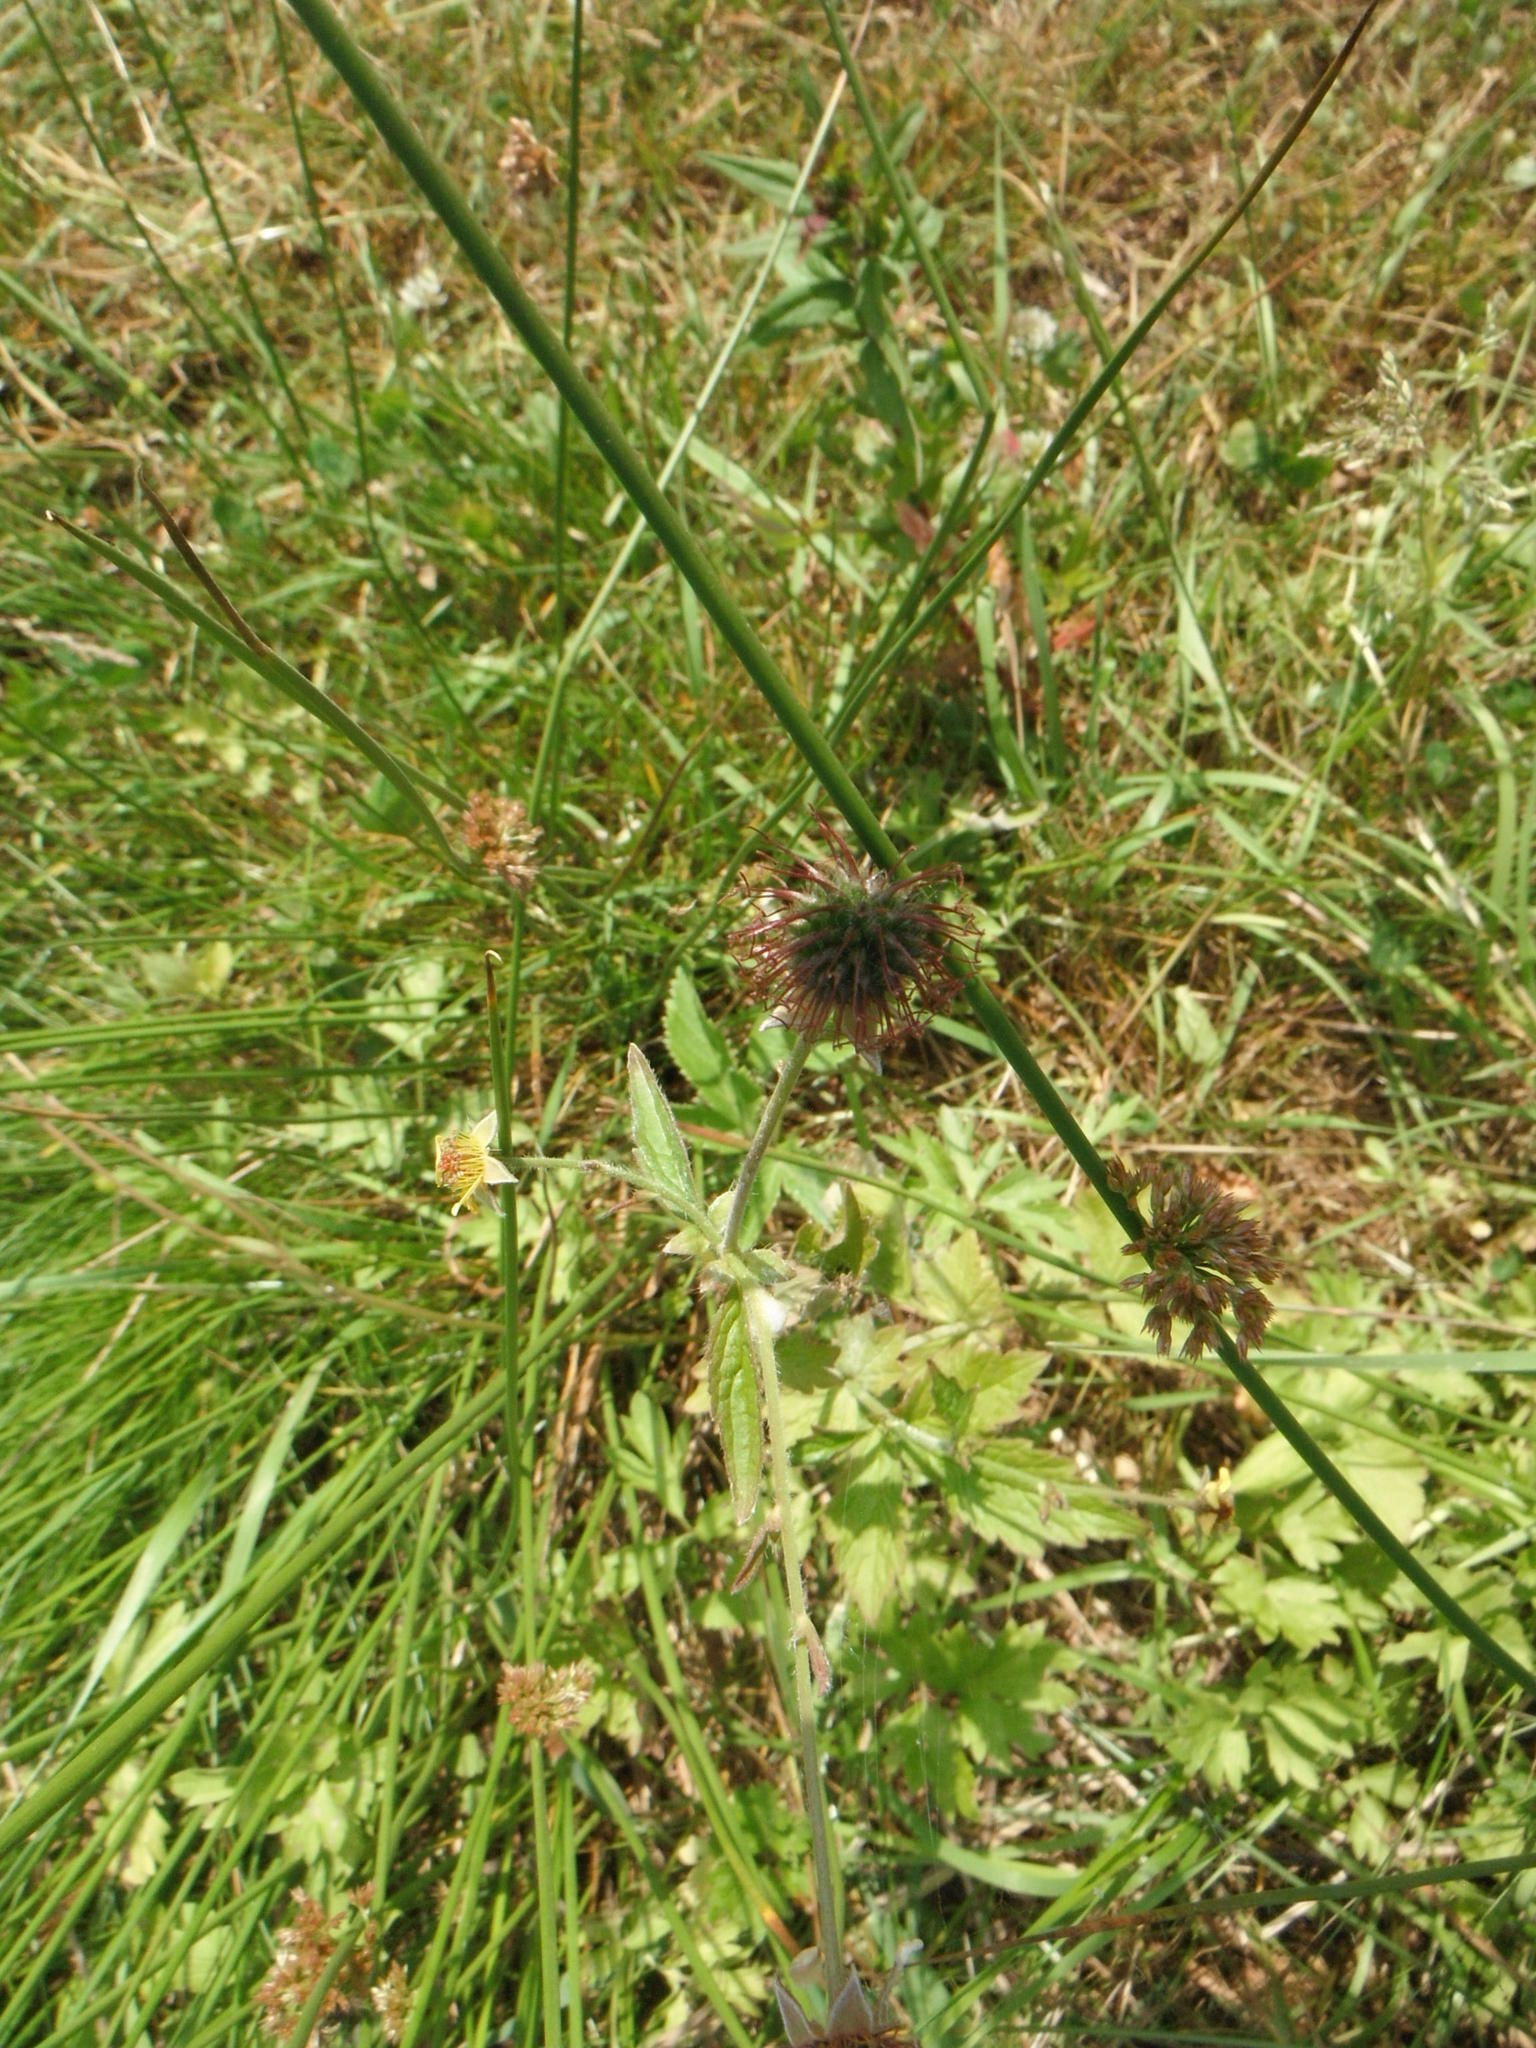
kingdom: Plantae
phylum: Tracheophyta
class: Magnoliopsida
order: Rosales
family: Rosaceae
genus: Geum
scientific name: Geum urbanum
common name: Wood avens
